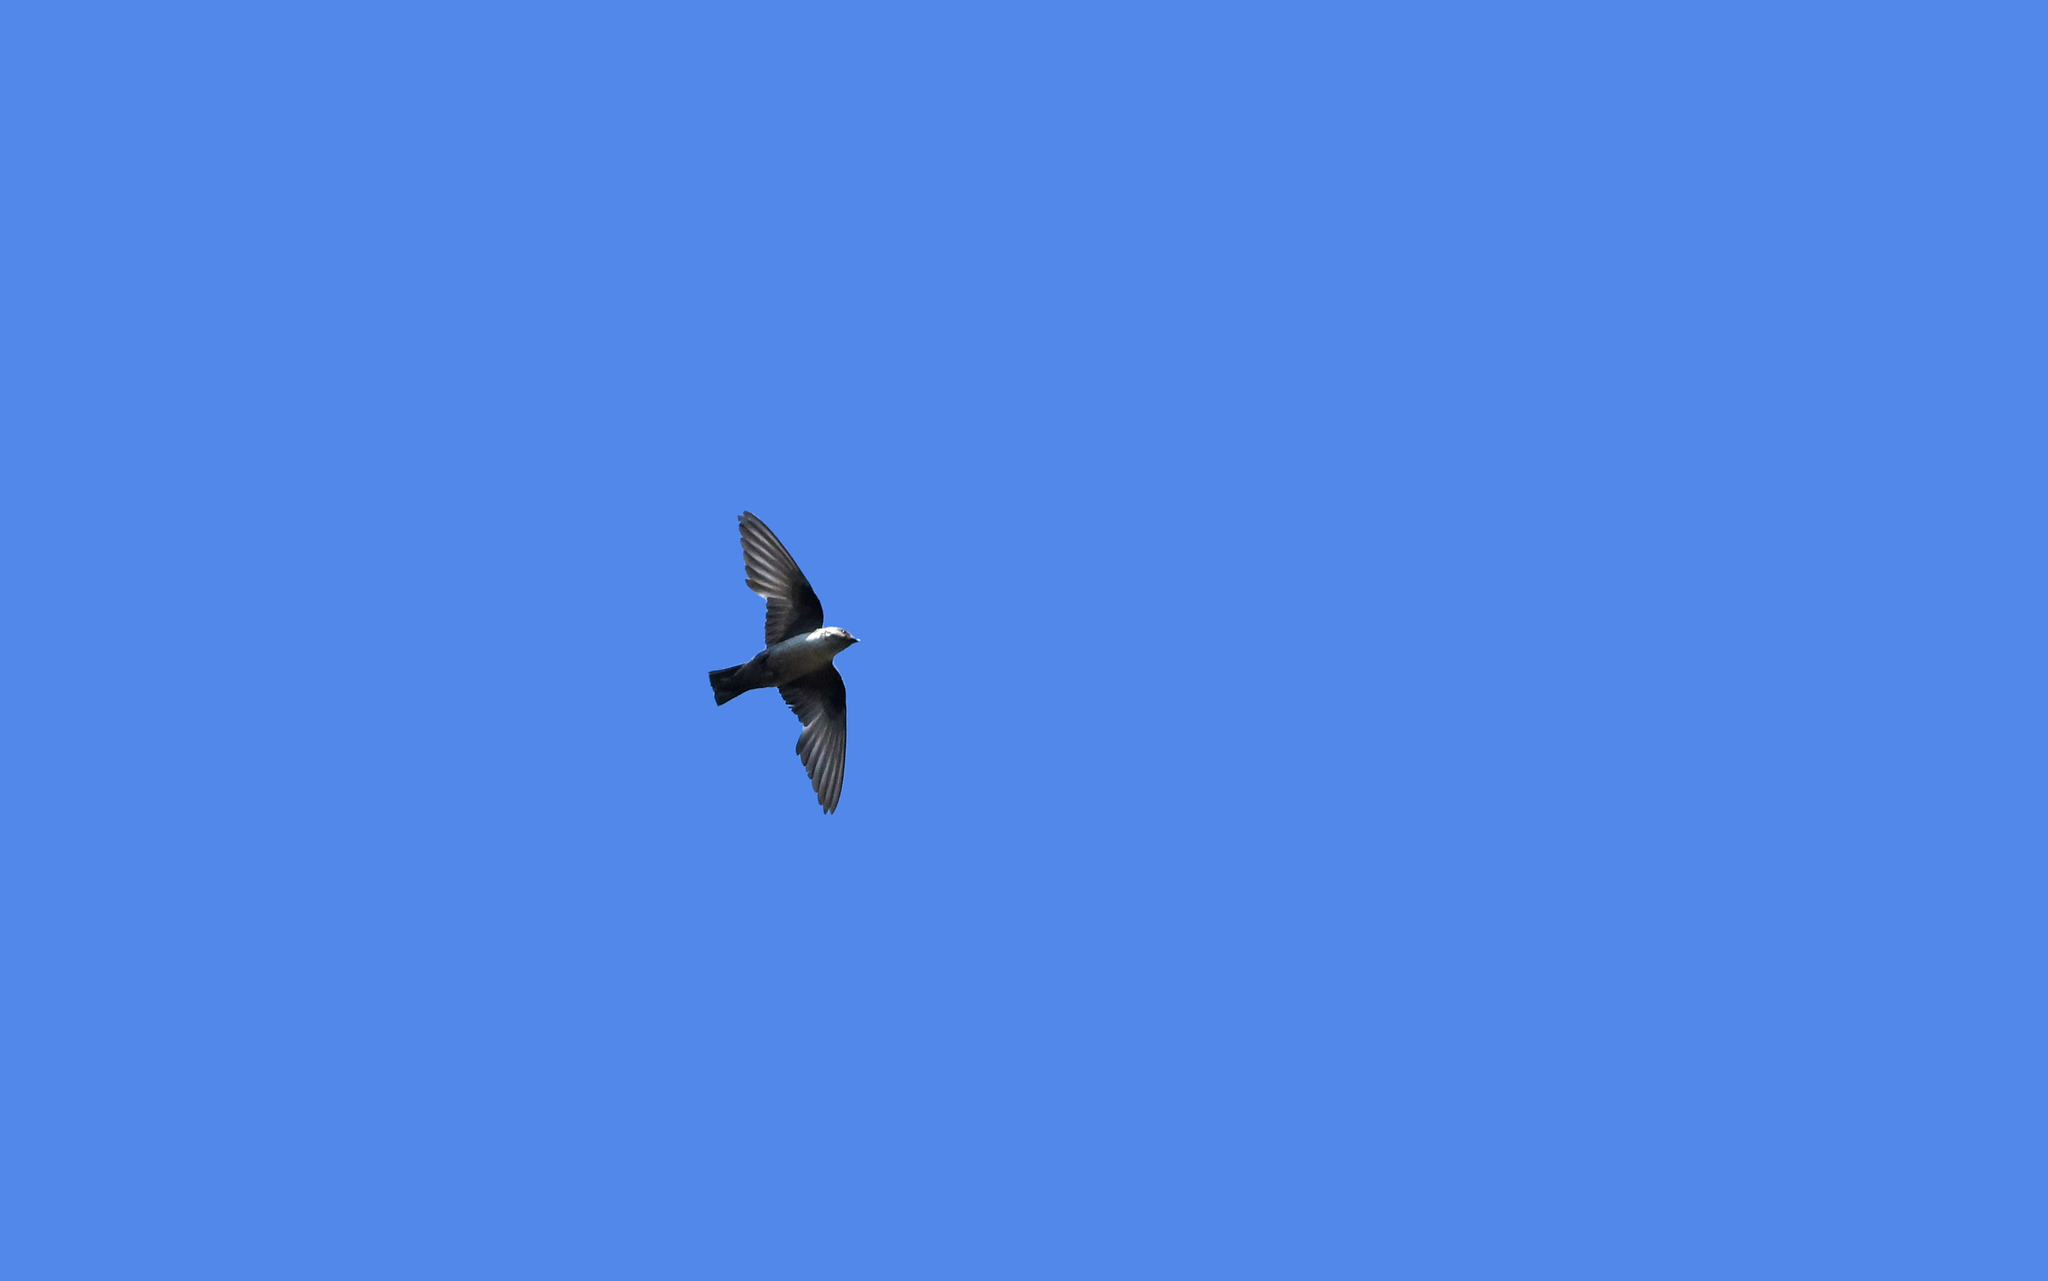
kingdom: Animalia
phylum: Chordata
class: Aves
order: Passeriformes
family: Hirundinidae
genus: Ptyonoprogne
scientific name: Ptyonoprogne rupestris
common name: Eurasian crag martin
